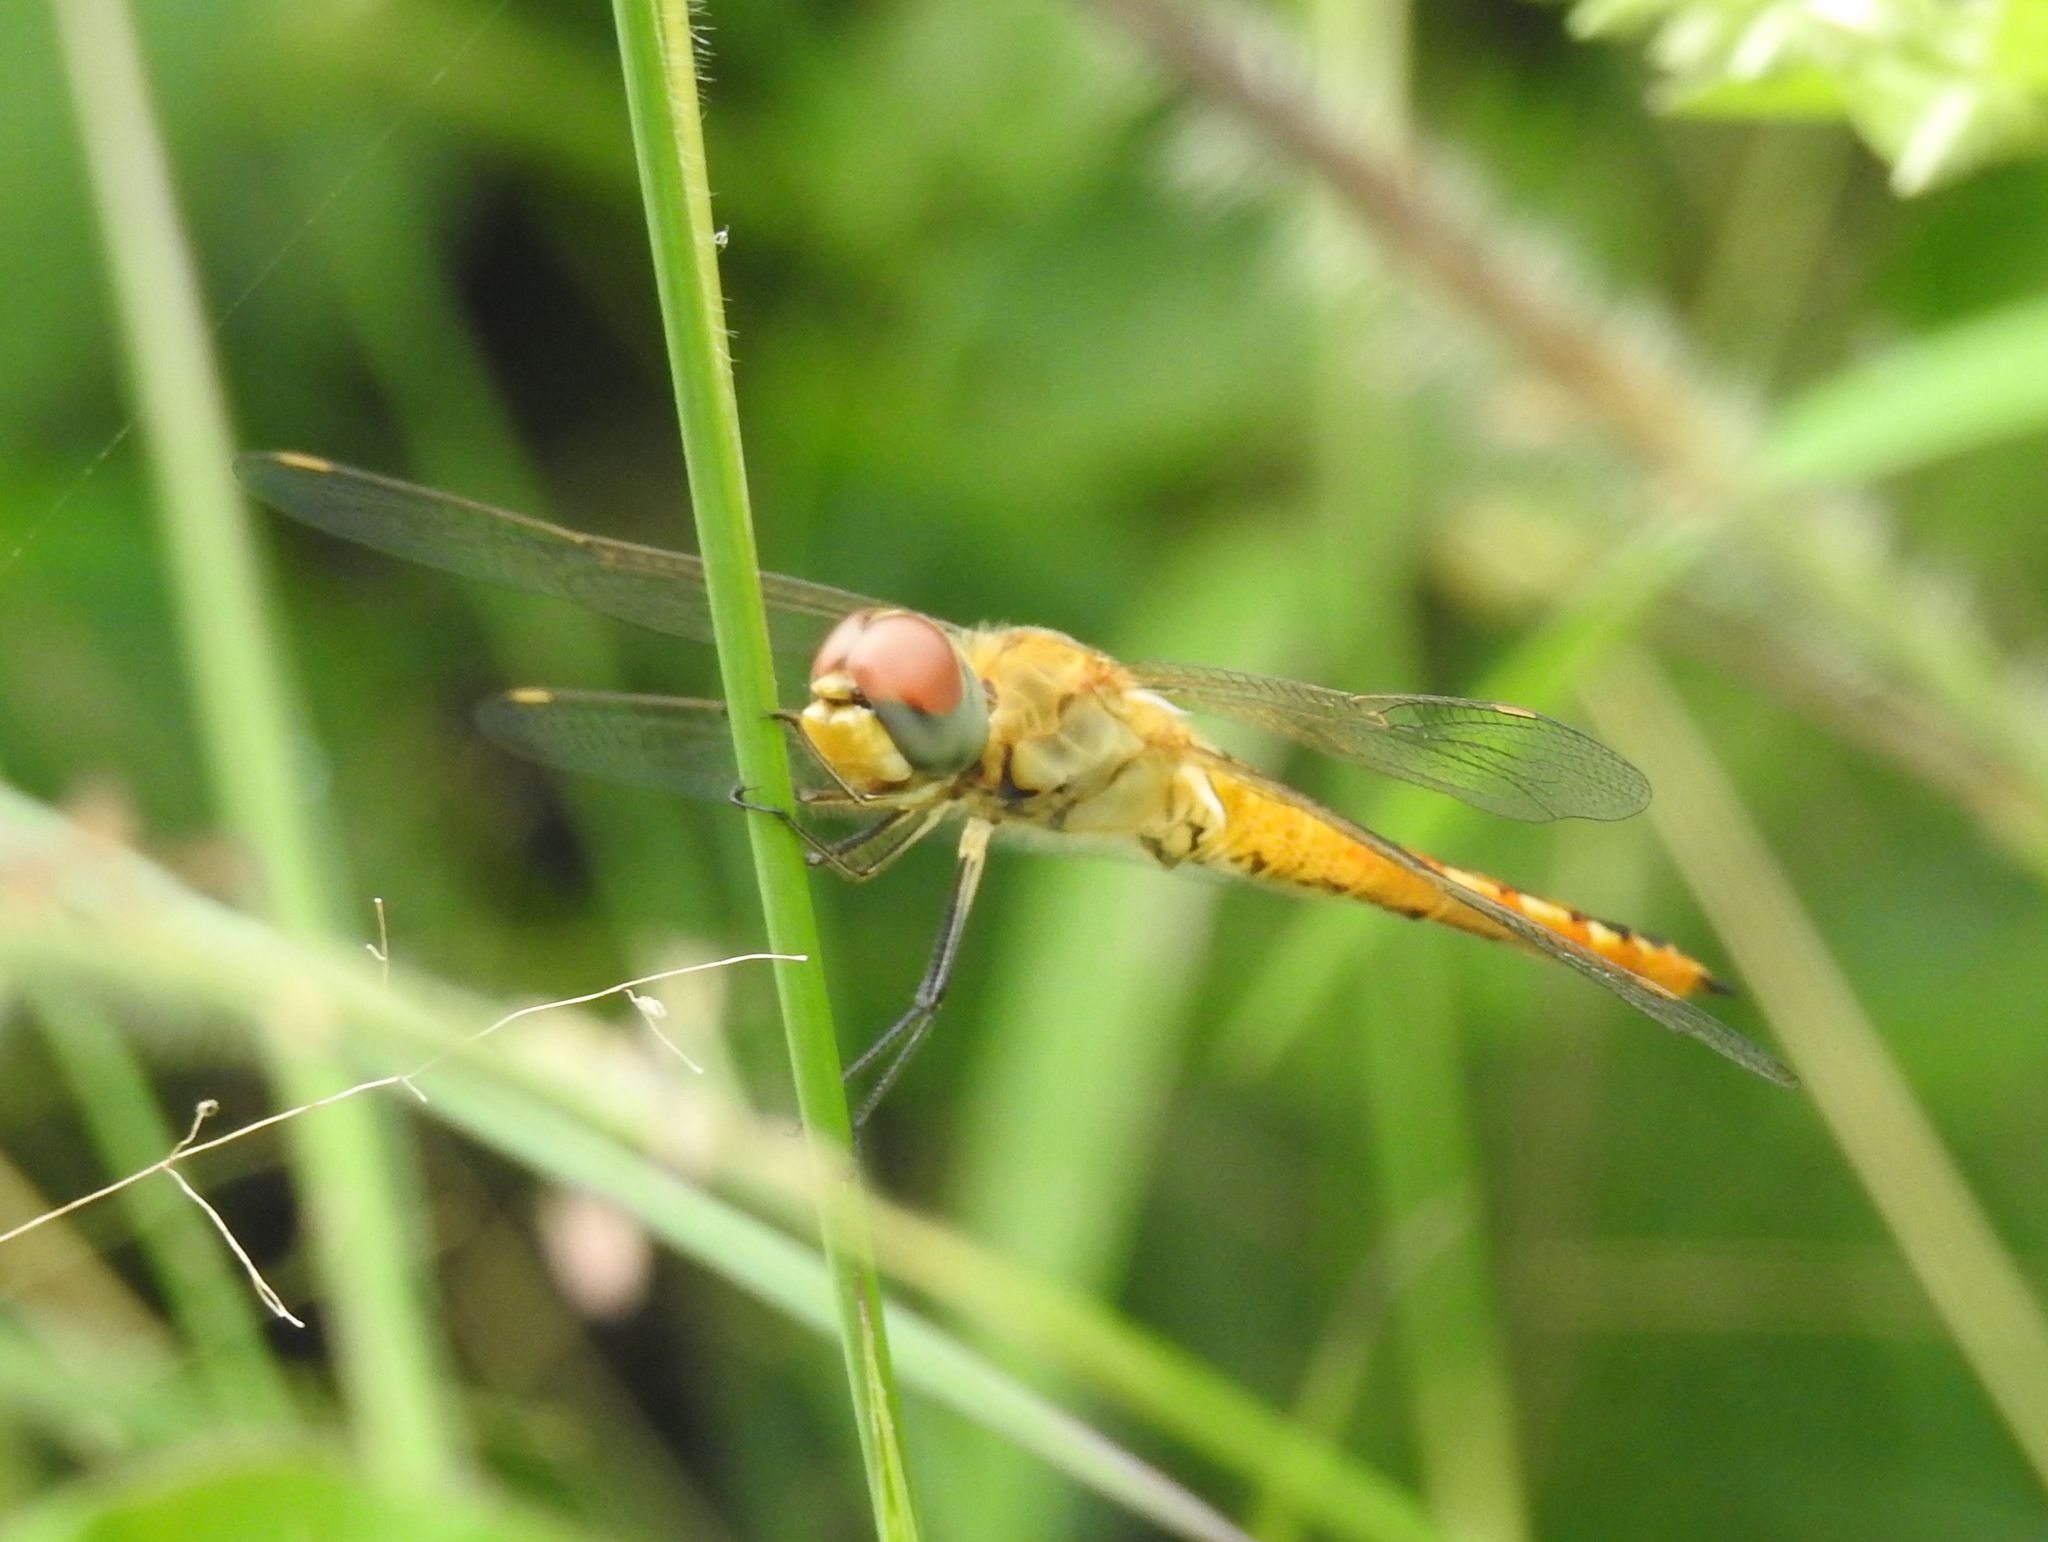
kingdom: Animalia
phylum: Arthropoda
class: Insecta
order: Odonata
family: Libellulidae
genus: Pantala
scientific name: Pantala flavescens
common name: Wandering glider
